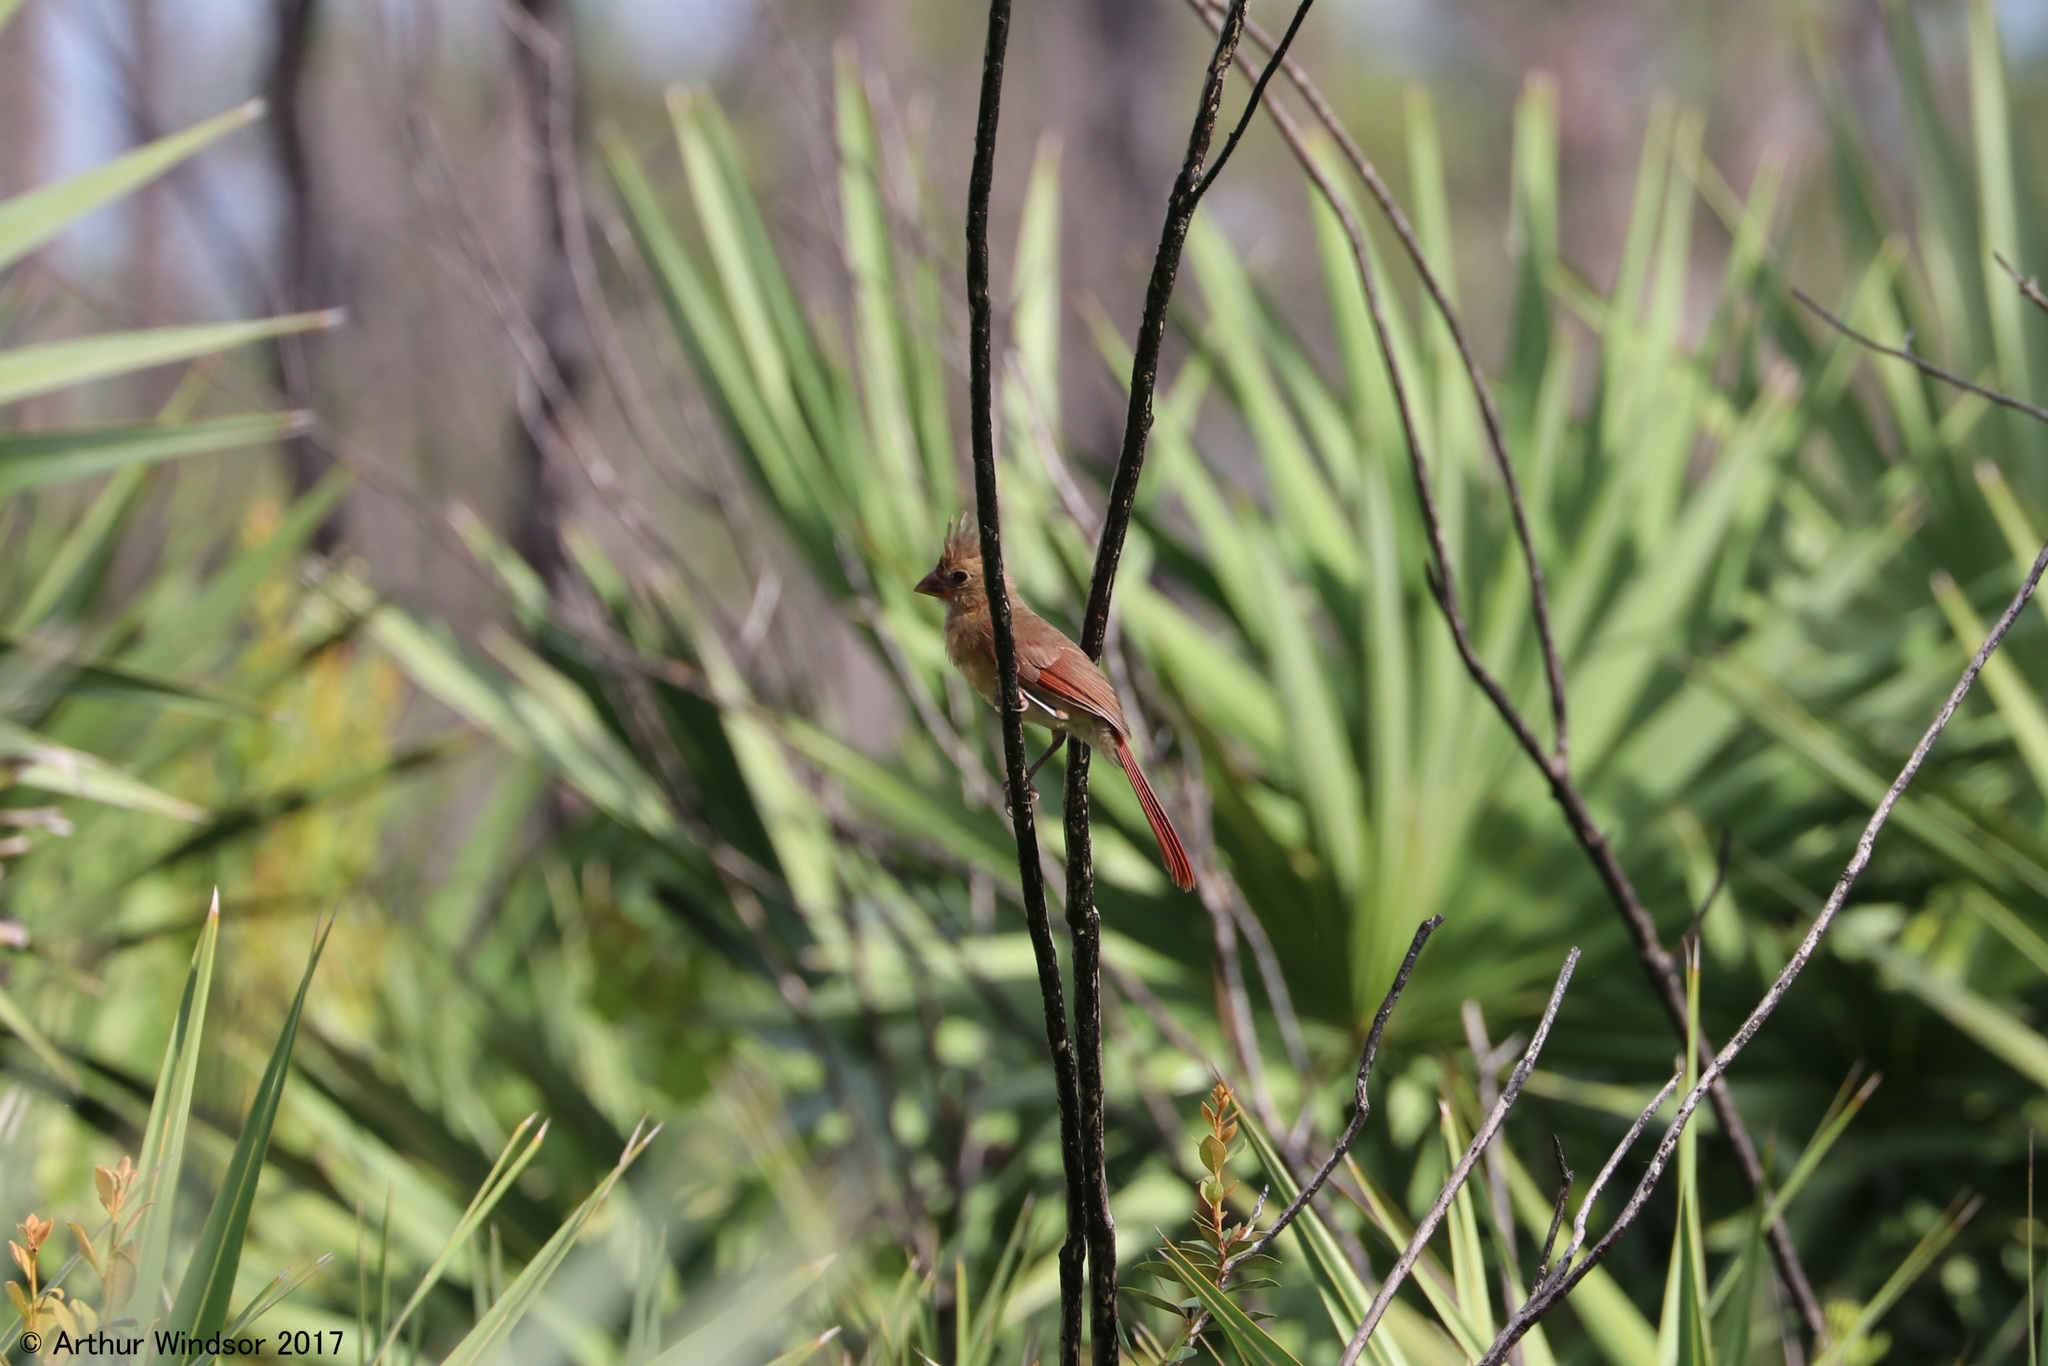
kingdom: Animalia
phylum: Chordata
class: Aves
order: Passeriformes
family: Cardinalidae
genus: Cardinalis
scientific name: Cardinalis cardinalis
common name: Northern cardinal
